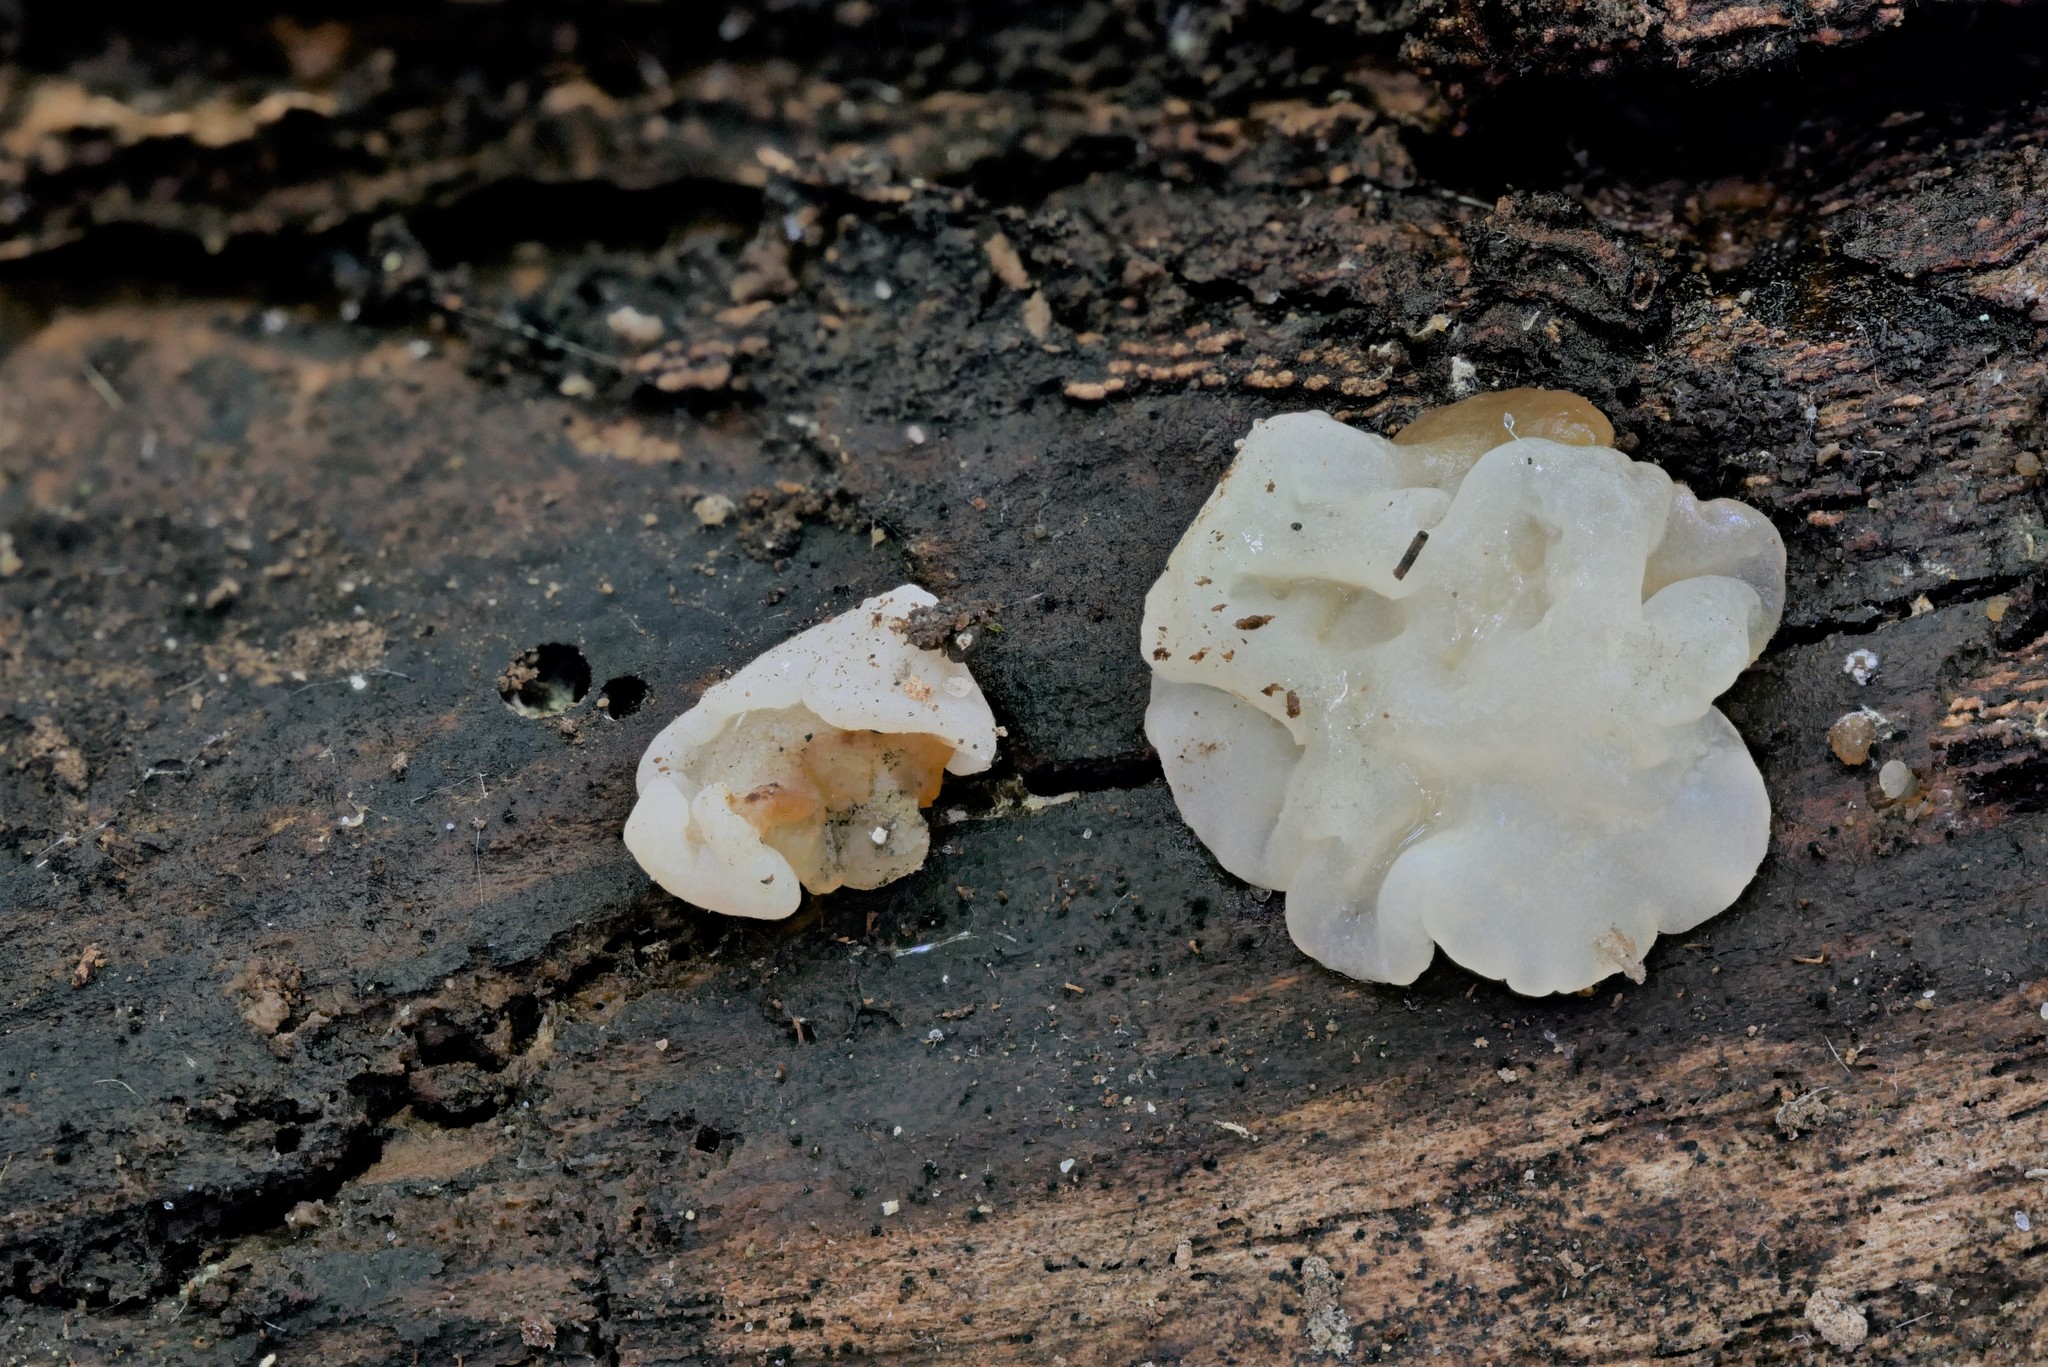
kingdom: Fungi
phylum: Basidiomycota
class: Agaricomycetes
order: Auriculariales
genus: Ductifera
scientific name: Ductifera pululahuana
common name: White jelly fungus
